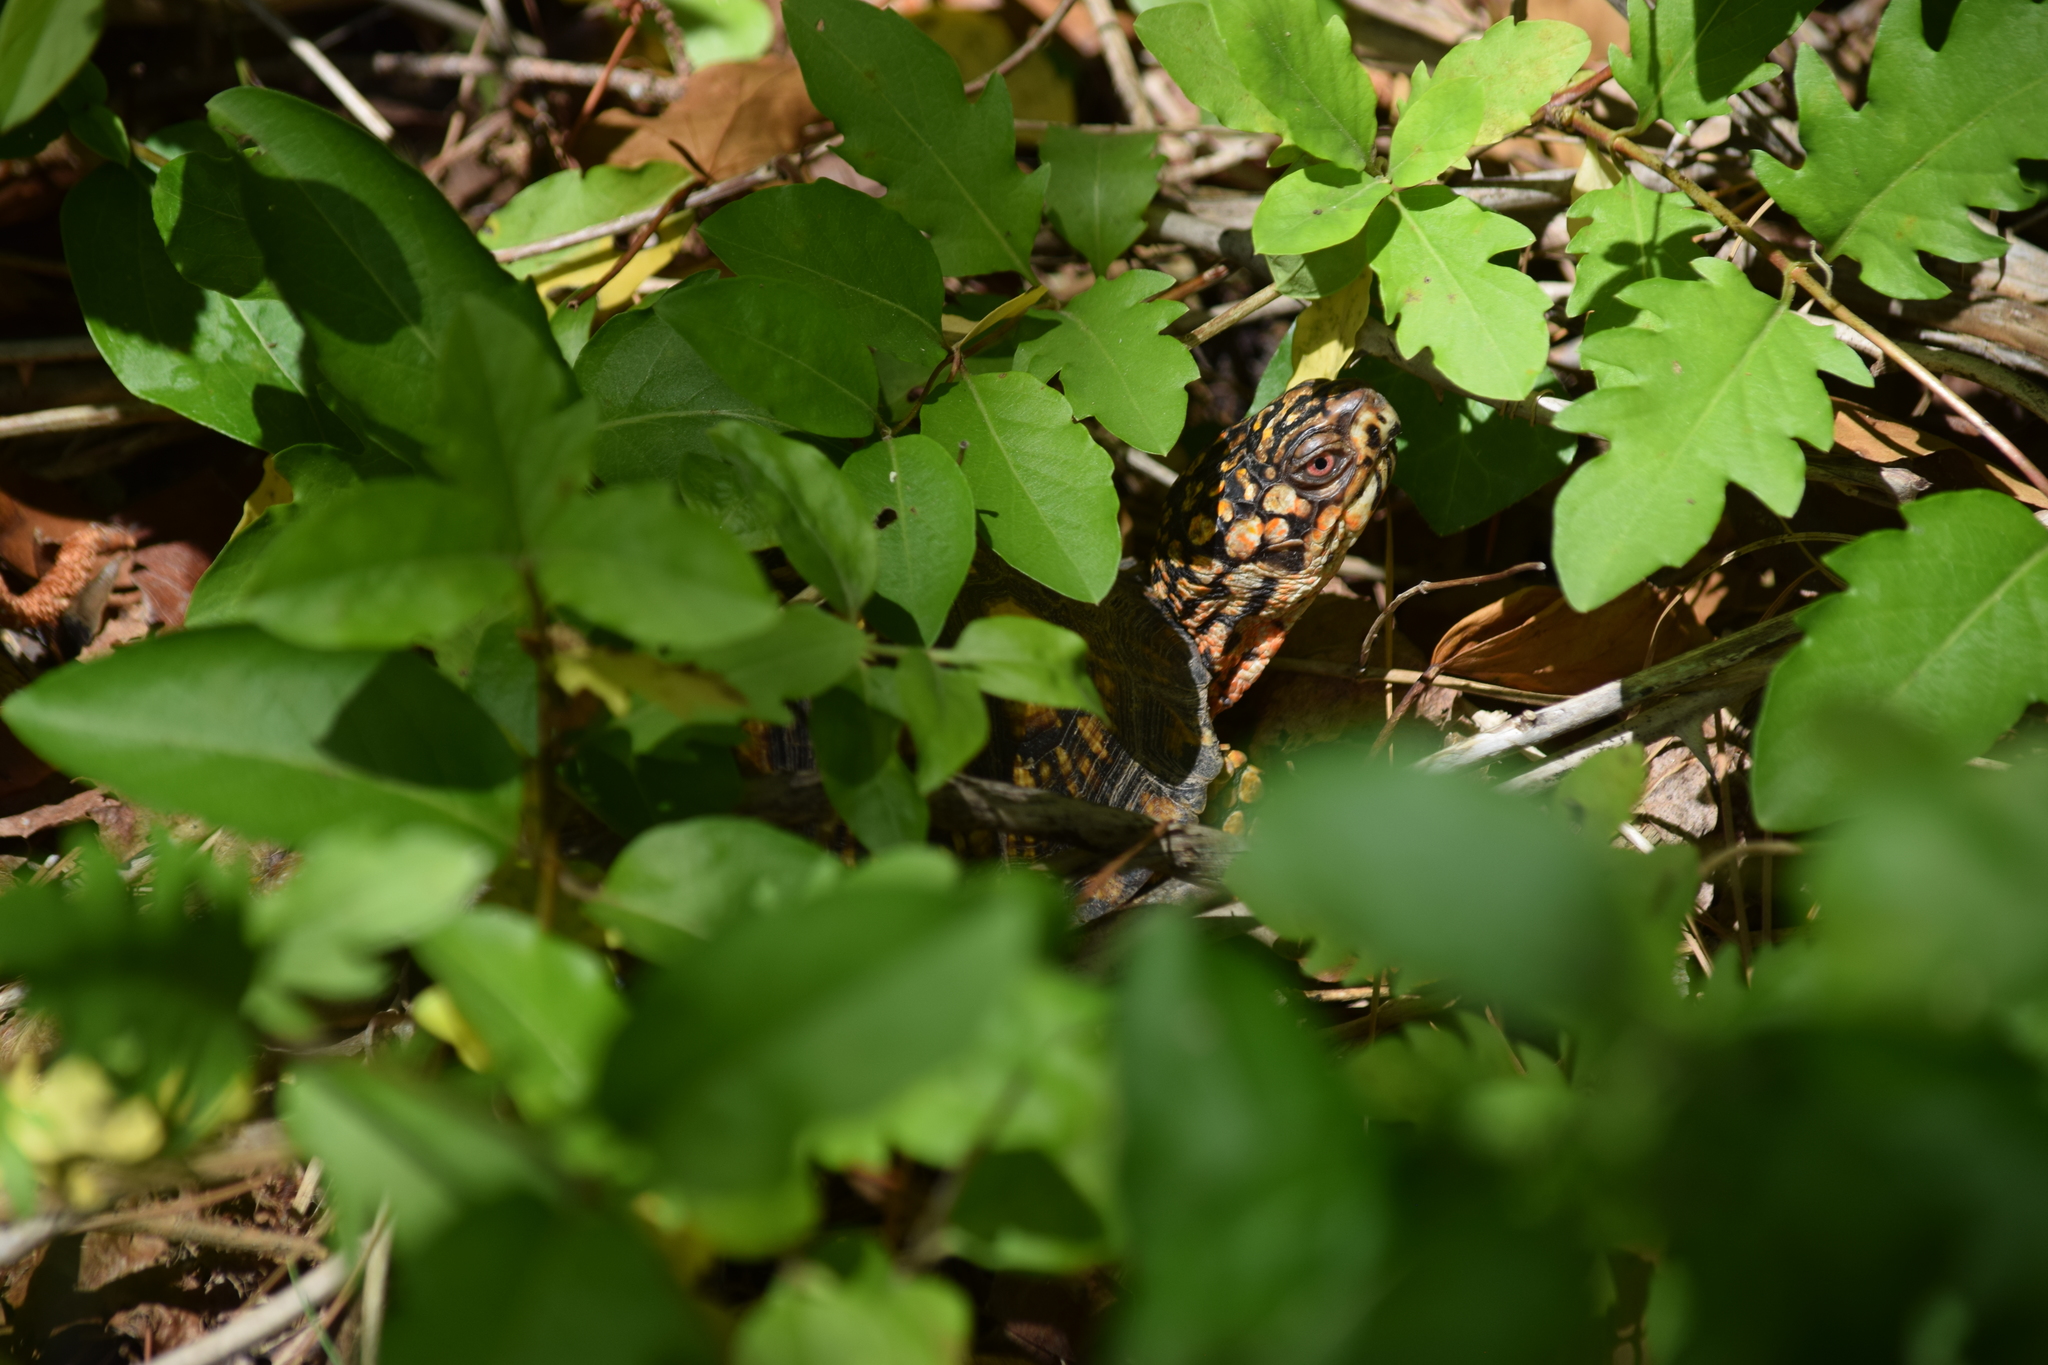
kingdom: Animalia
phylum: Chordata
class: Testudines
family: Emydidae
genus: Terrapene
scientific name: Terrapene carolina
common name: Common box turtle
